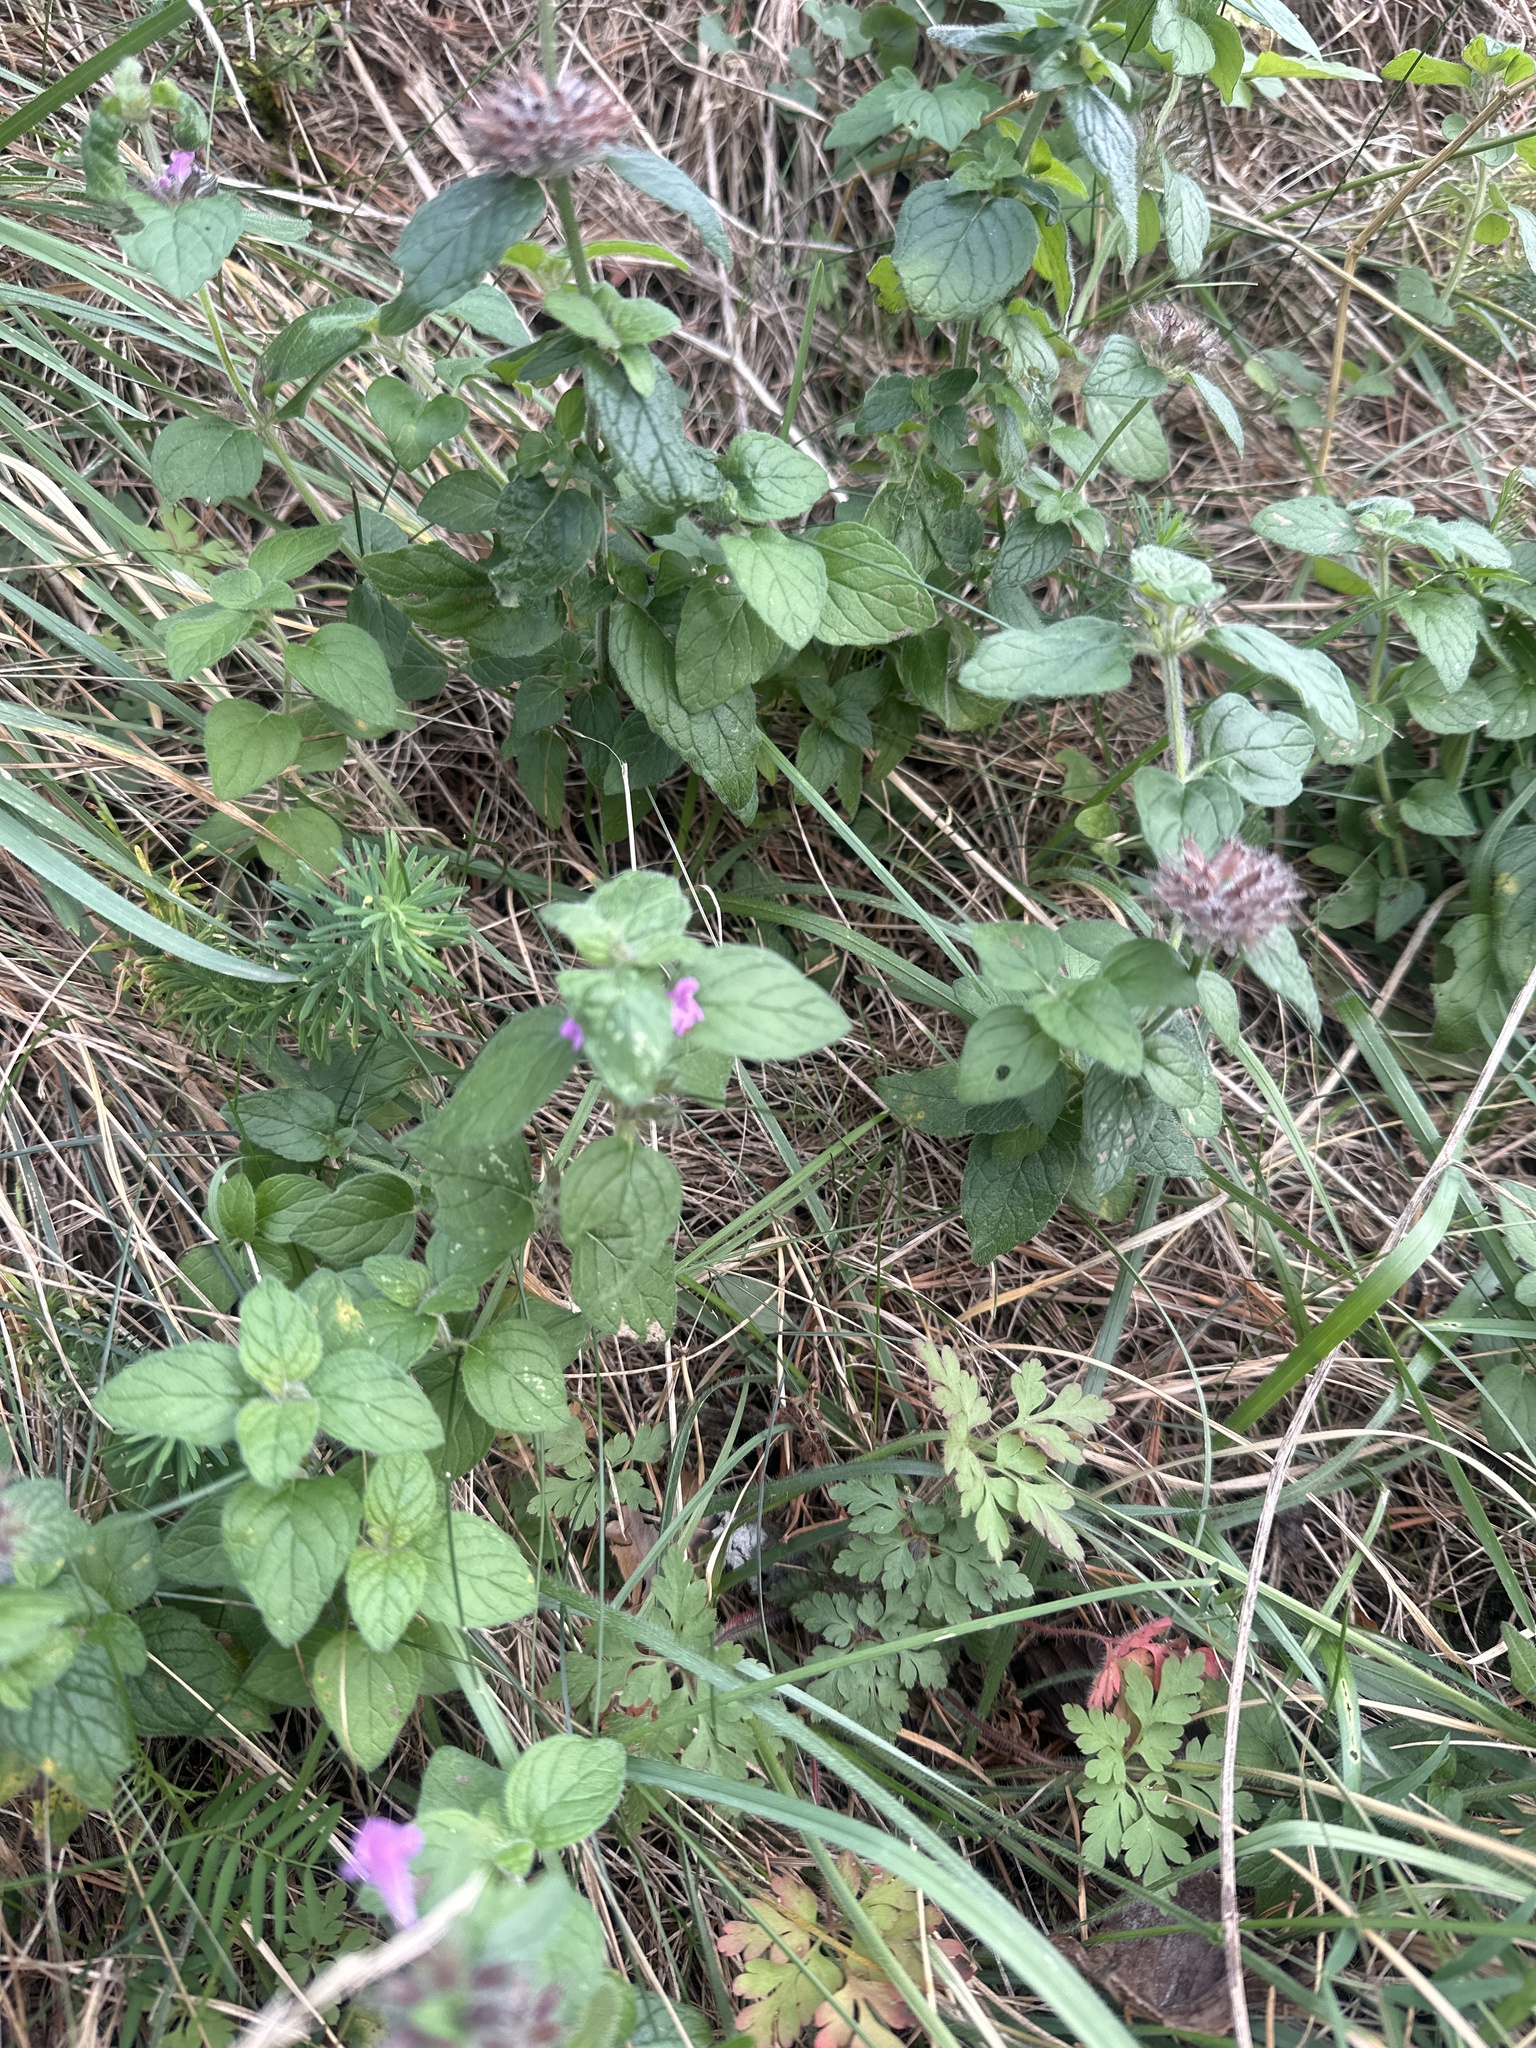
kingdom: Plantae
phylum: Tracheophyta
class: Magnoliopsida
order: Lamiales
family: Lamiaceae
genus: Clinopodium
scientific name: Clinopodium vulgare
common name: Wild basil
